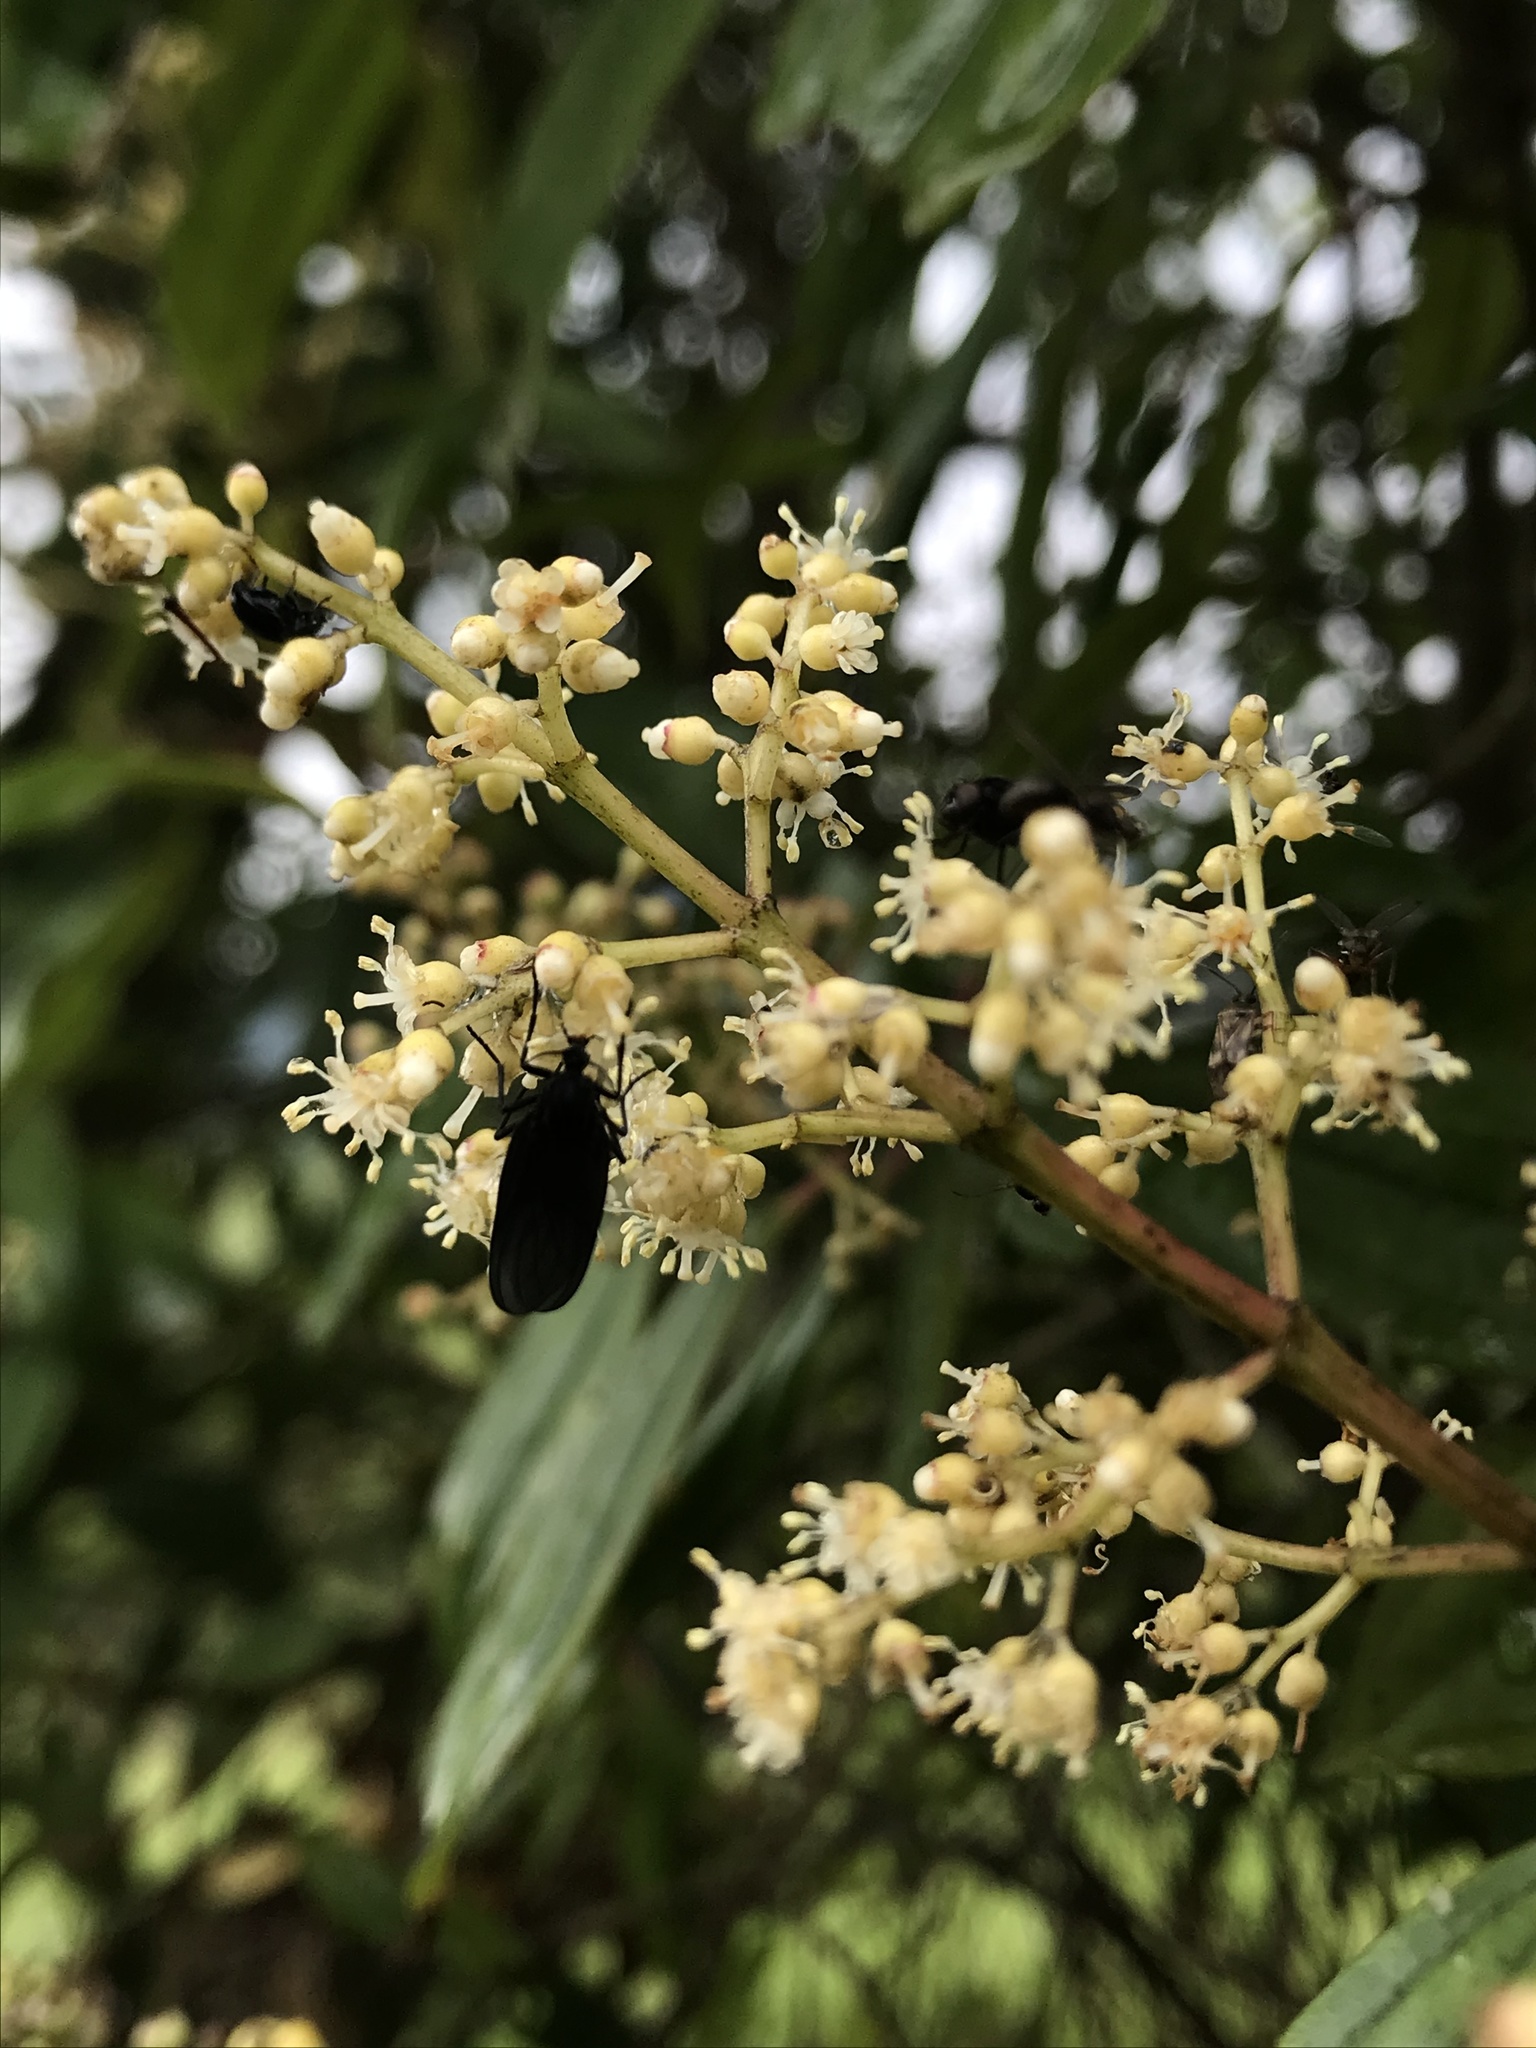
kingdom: Plantae
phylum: Tracheophyta
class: Magnoliopsida
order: Myrtales
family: Melastomataceae
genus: Miconia
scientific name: Miconia theizans
